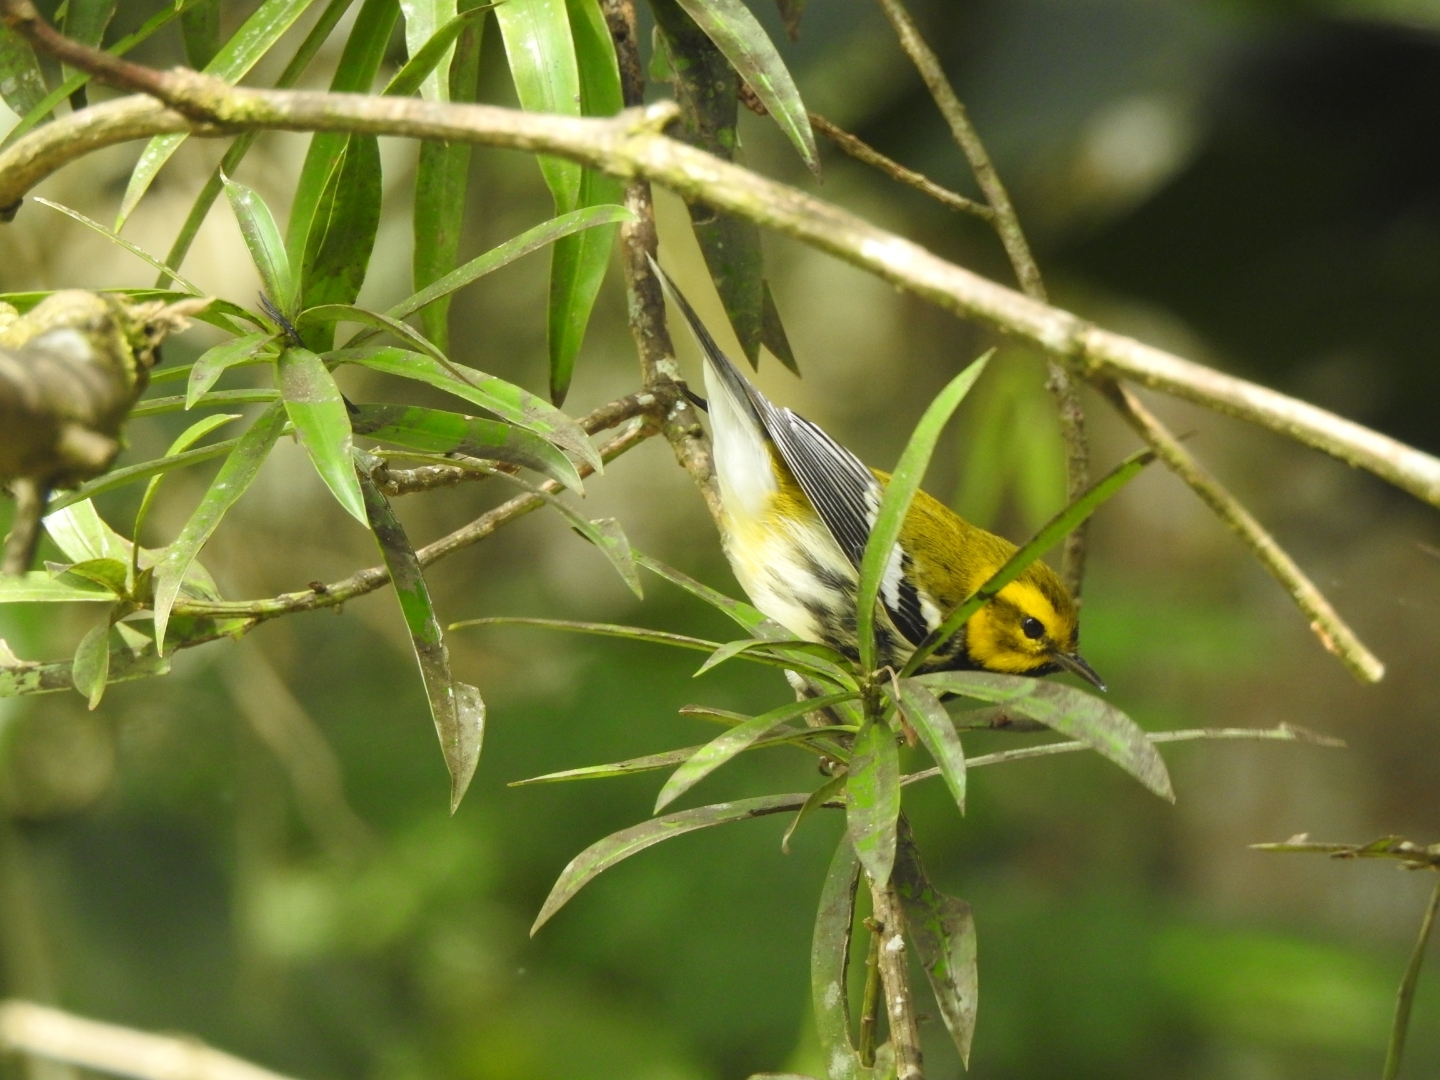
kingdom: Animalia
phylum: Chordata
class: Aves
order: Passeriformes
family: Parulidae
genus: Setophaga
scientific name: Setophaga virens
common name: Black-throated green warbler
